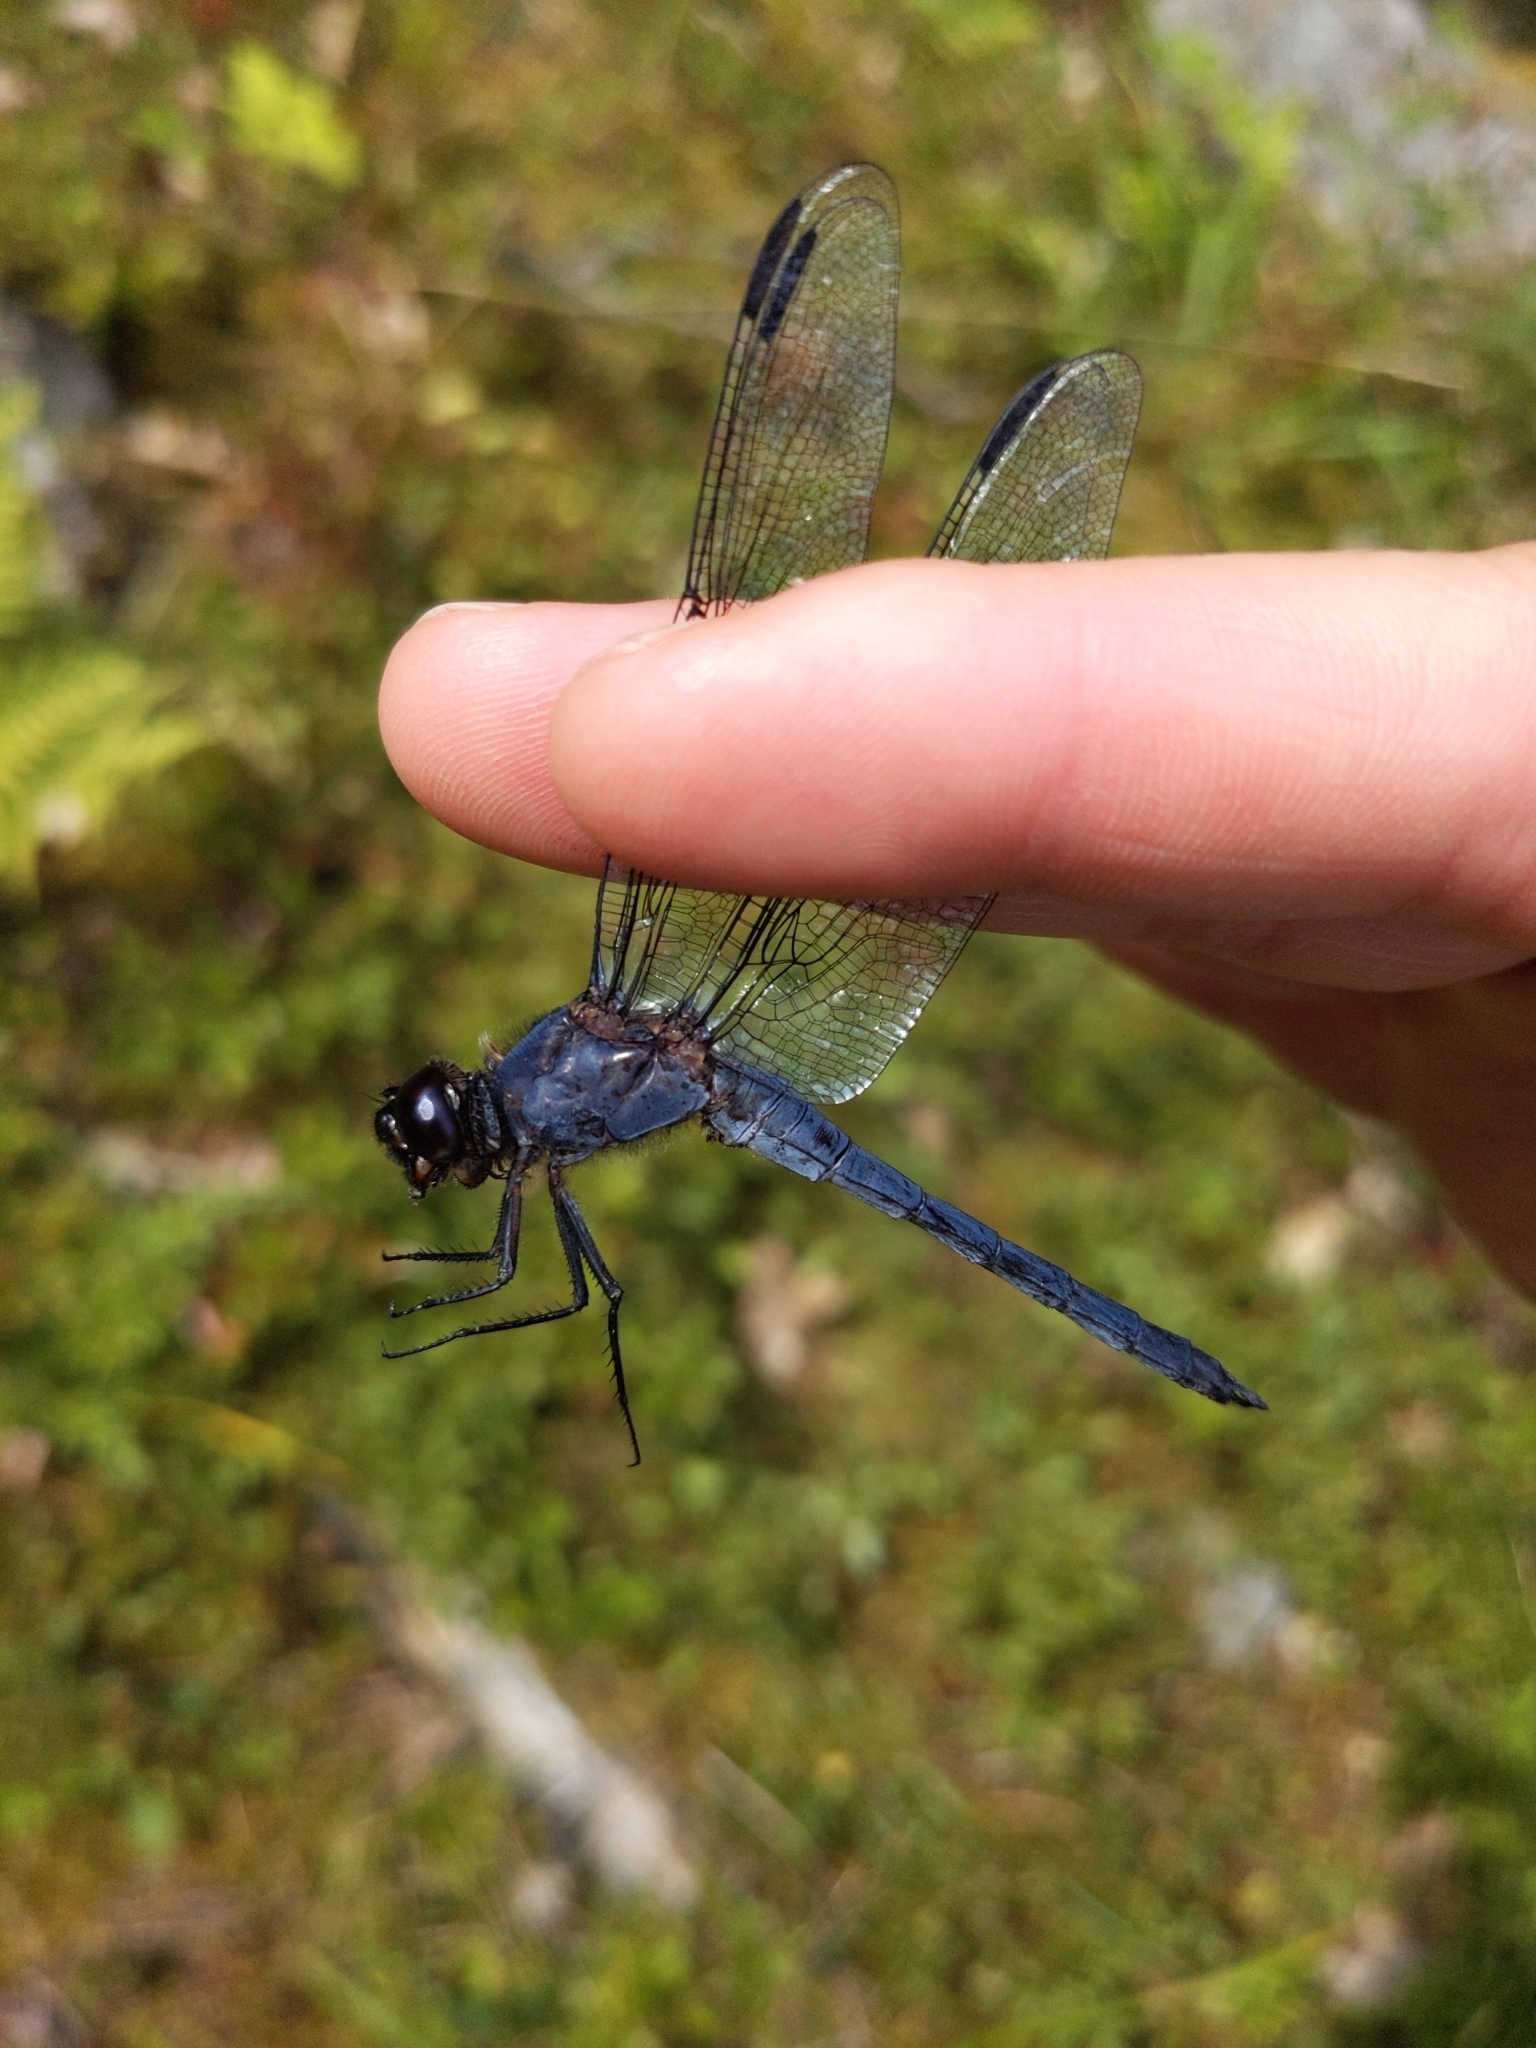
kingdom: Animalia
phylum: Arthropoda
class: Insecta
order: Odonata
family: Libellulidae
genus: Libellula
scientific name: Libellula incesta
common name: Slaty skimmer
